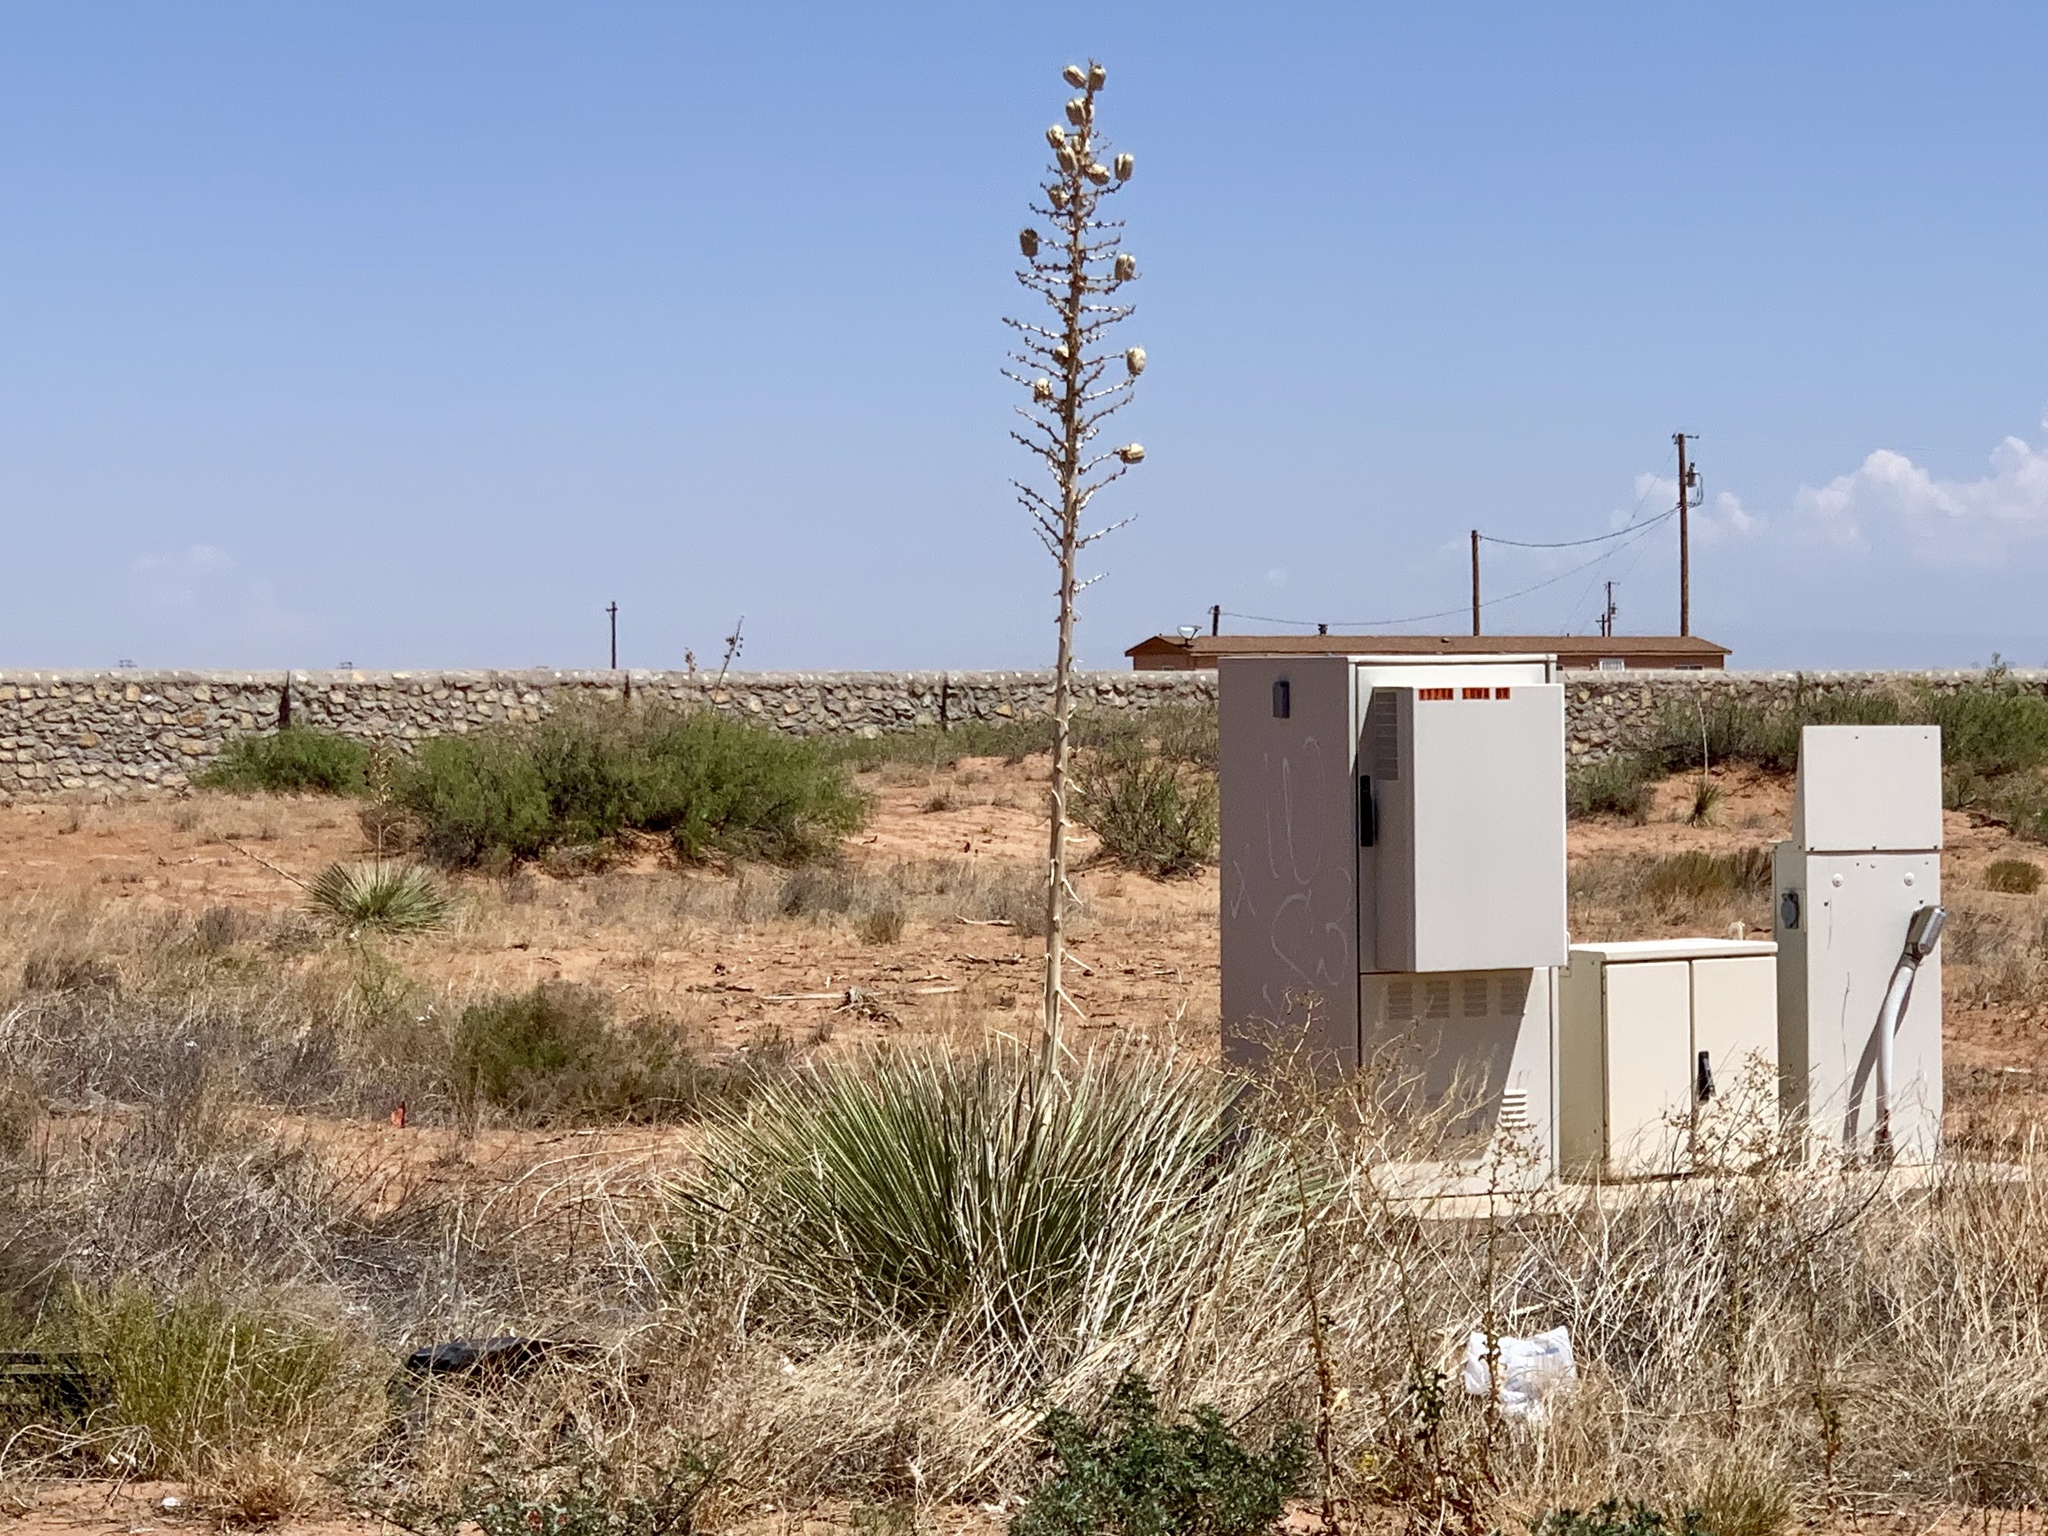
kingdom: Plantae
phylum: Tracheophyta
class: Liliopsida
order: Asparagales
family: Asparagaceae
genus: Yucca
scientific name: Yucca elata
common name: Palmella
